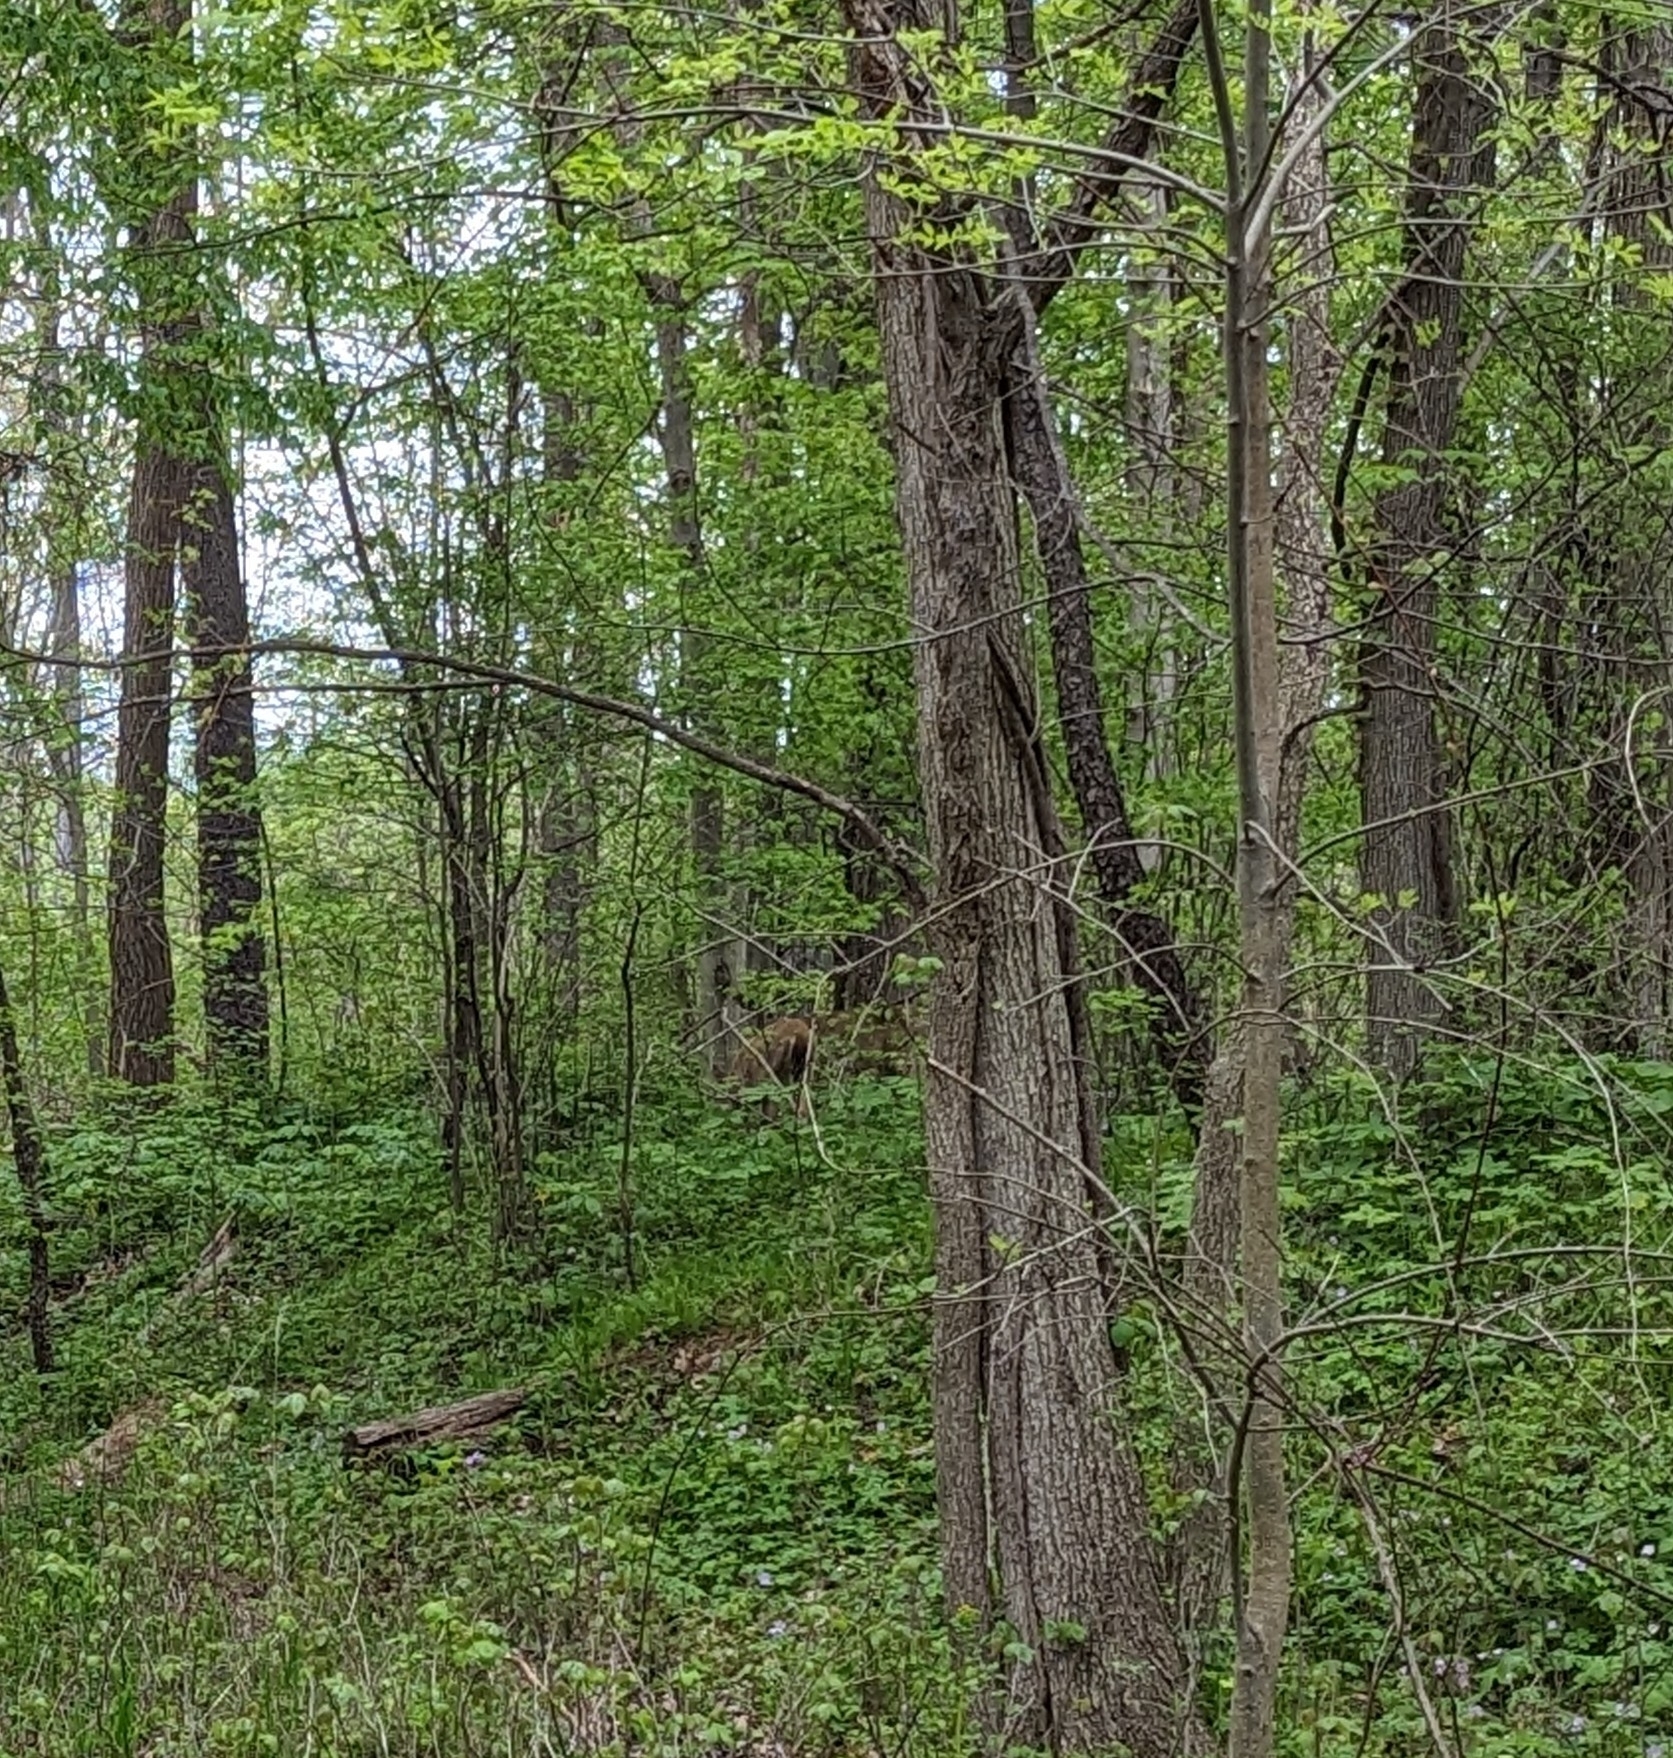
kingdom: Animalia
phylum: Chordata
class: Mammalia
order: Artiodactyla
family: Cervidae
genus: Odocoileus
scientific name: Odocoileus virginianus
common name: White-tailed deer
